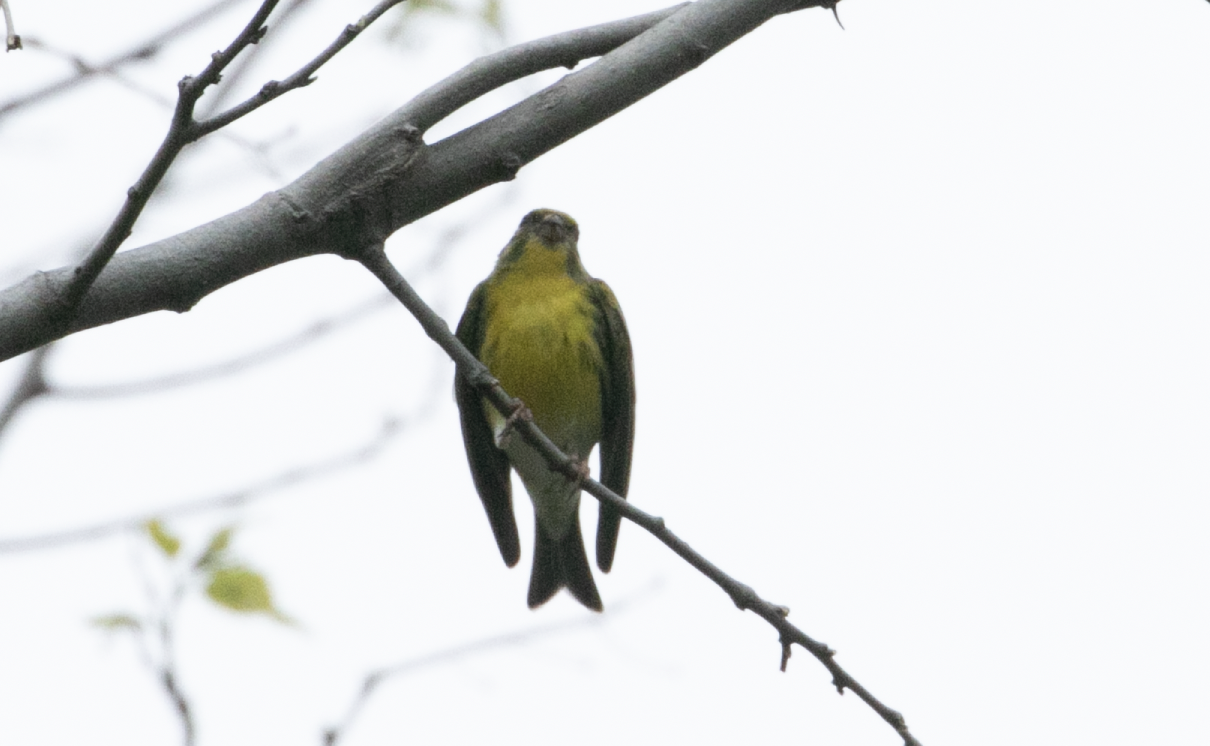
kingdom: Animalia
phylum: Chordata
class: Aves
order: Passeriformes
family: Fringillidae
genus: Serinus
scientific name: Serinus serinus
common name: European serin
